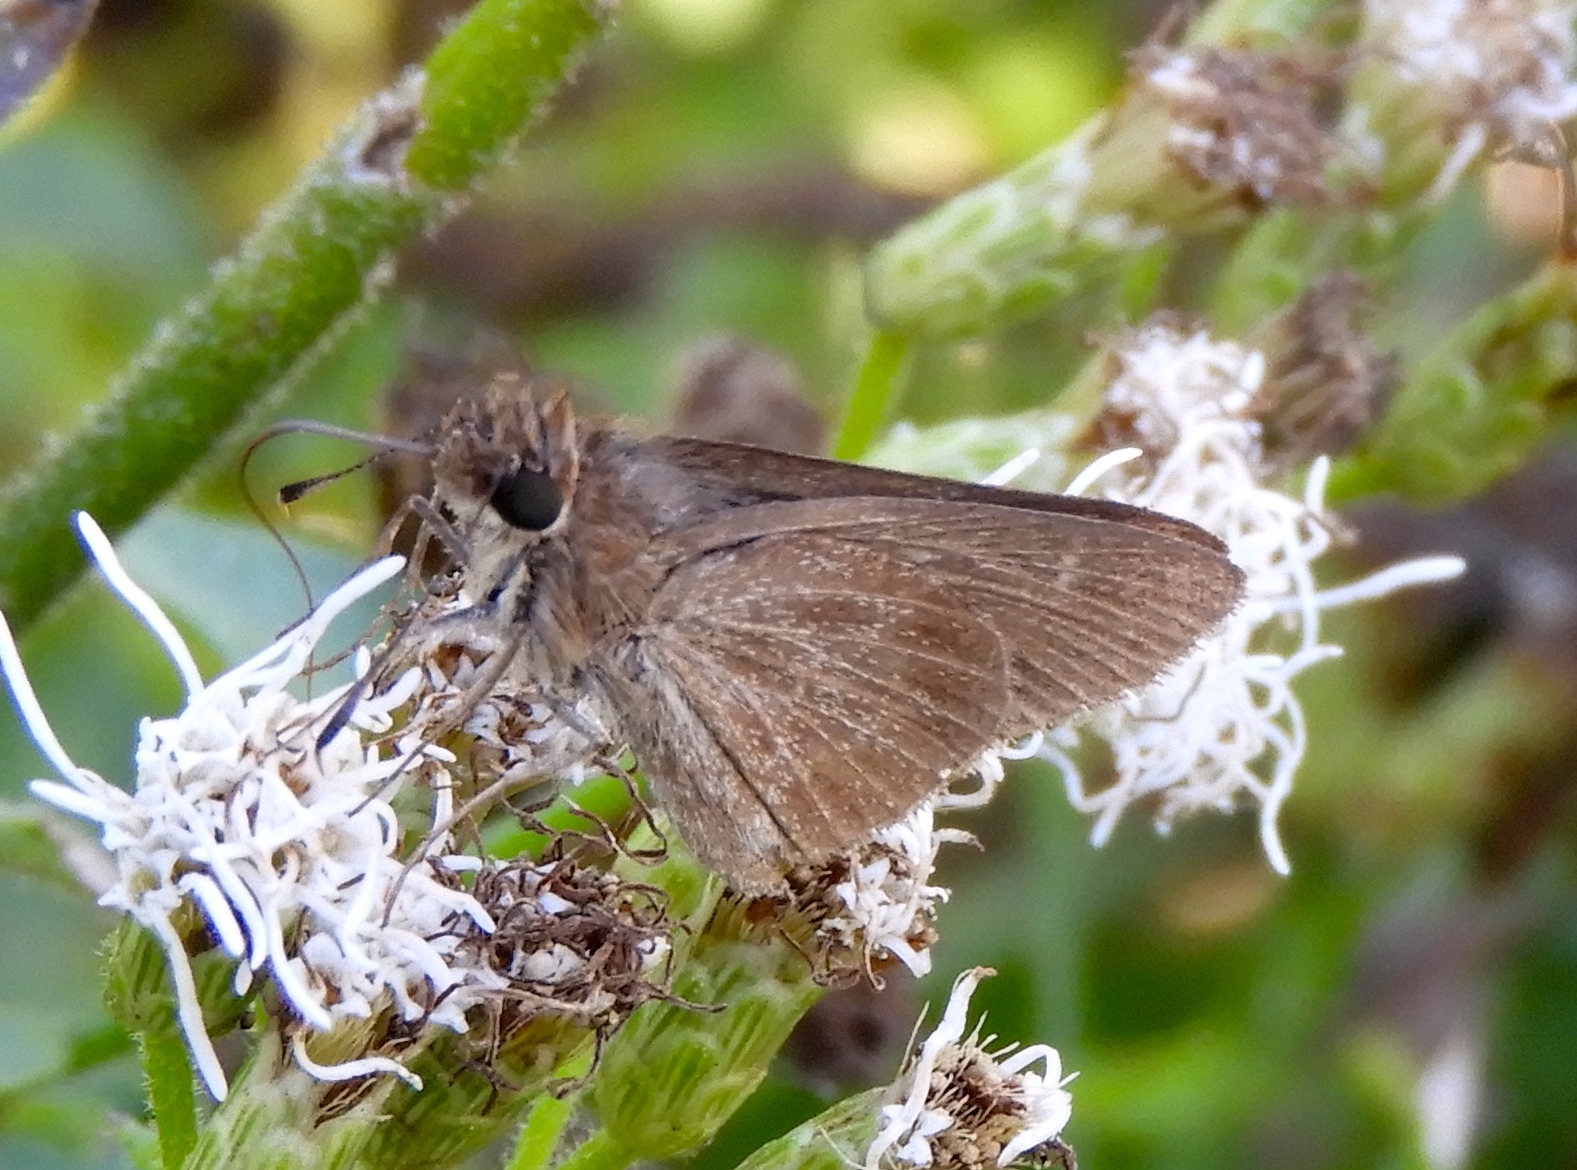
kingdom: Animalia
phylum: Arthropoda
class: Insecta
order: Lepidoptera
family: Hesperiidae
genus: Lerema
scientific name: Lerema accius
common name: Clouded skipper
